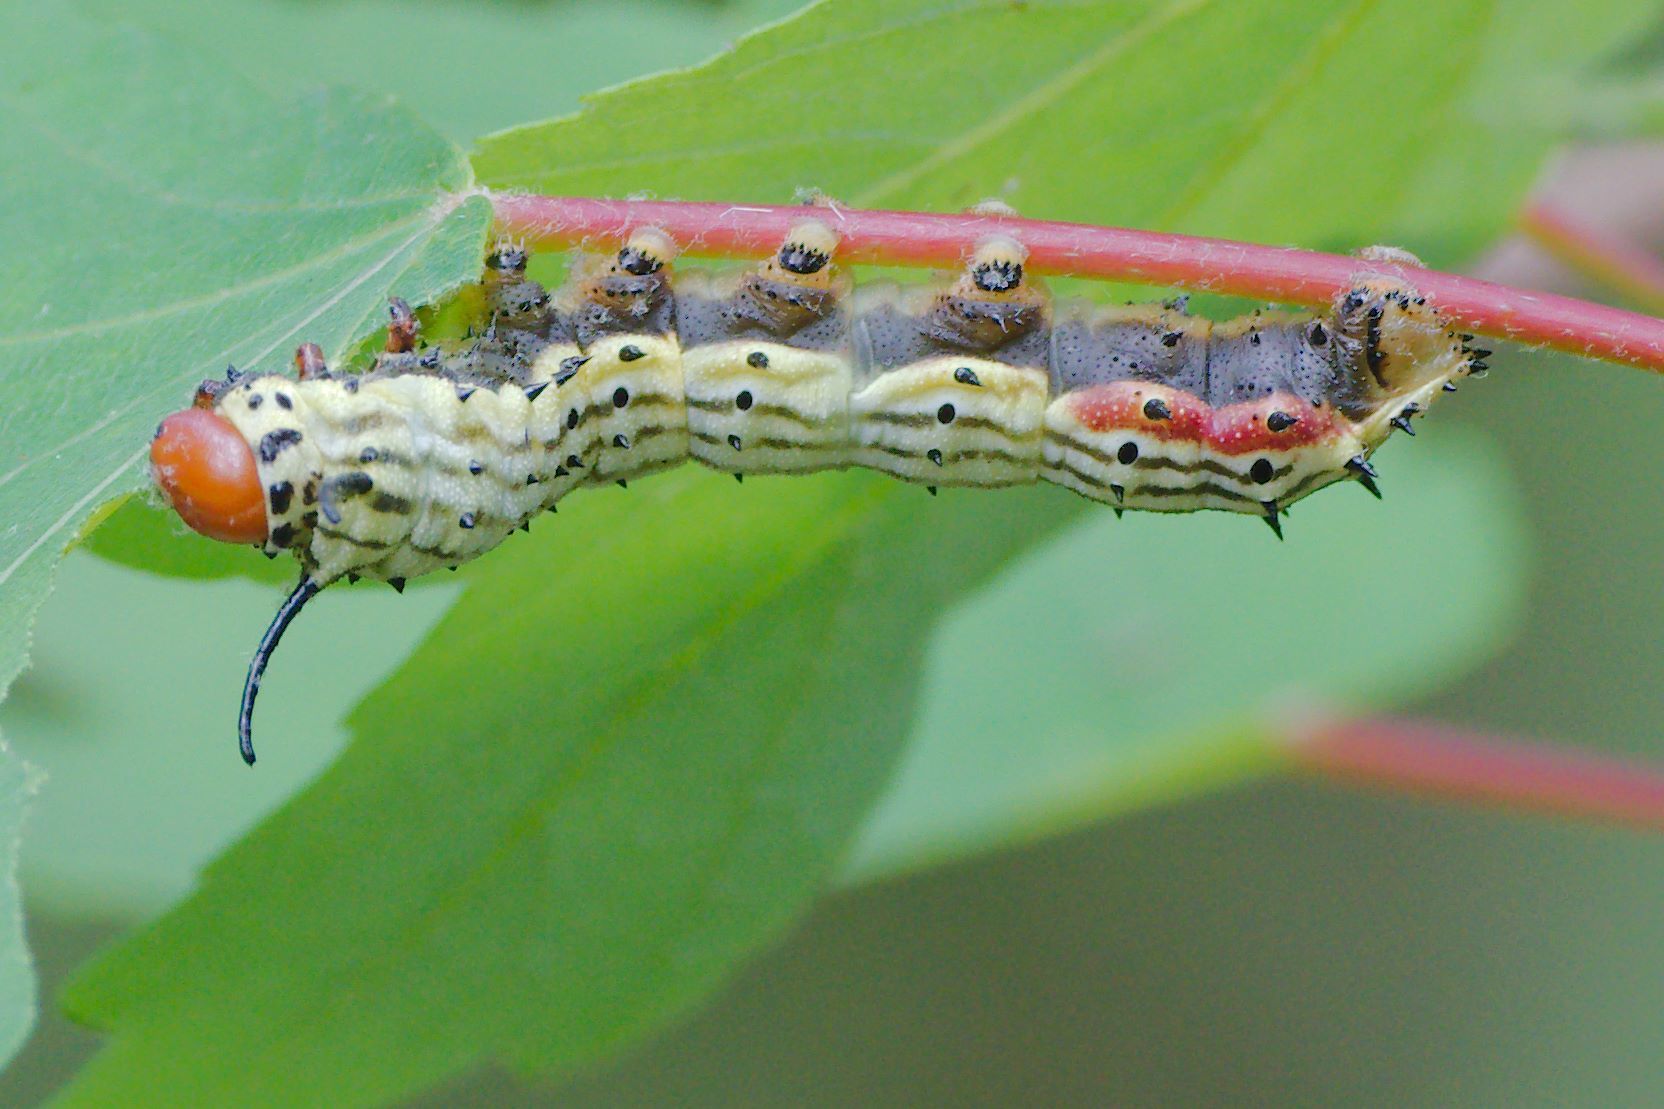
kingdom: Animalia
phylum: Arthropoda
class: Insecta
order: Lepidoptera
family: Saturniidae
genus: Dryocampa
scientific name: Dryocampa rubicunda
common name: Rosy maple moth
